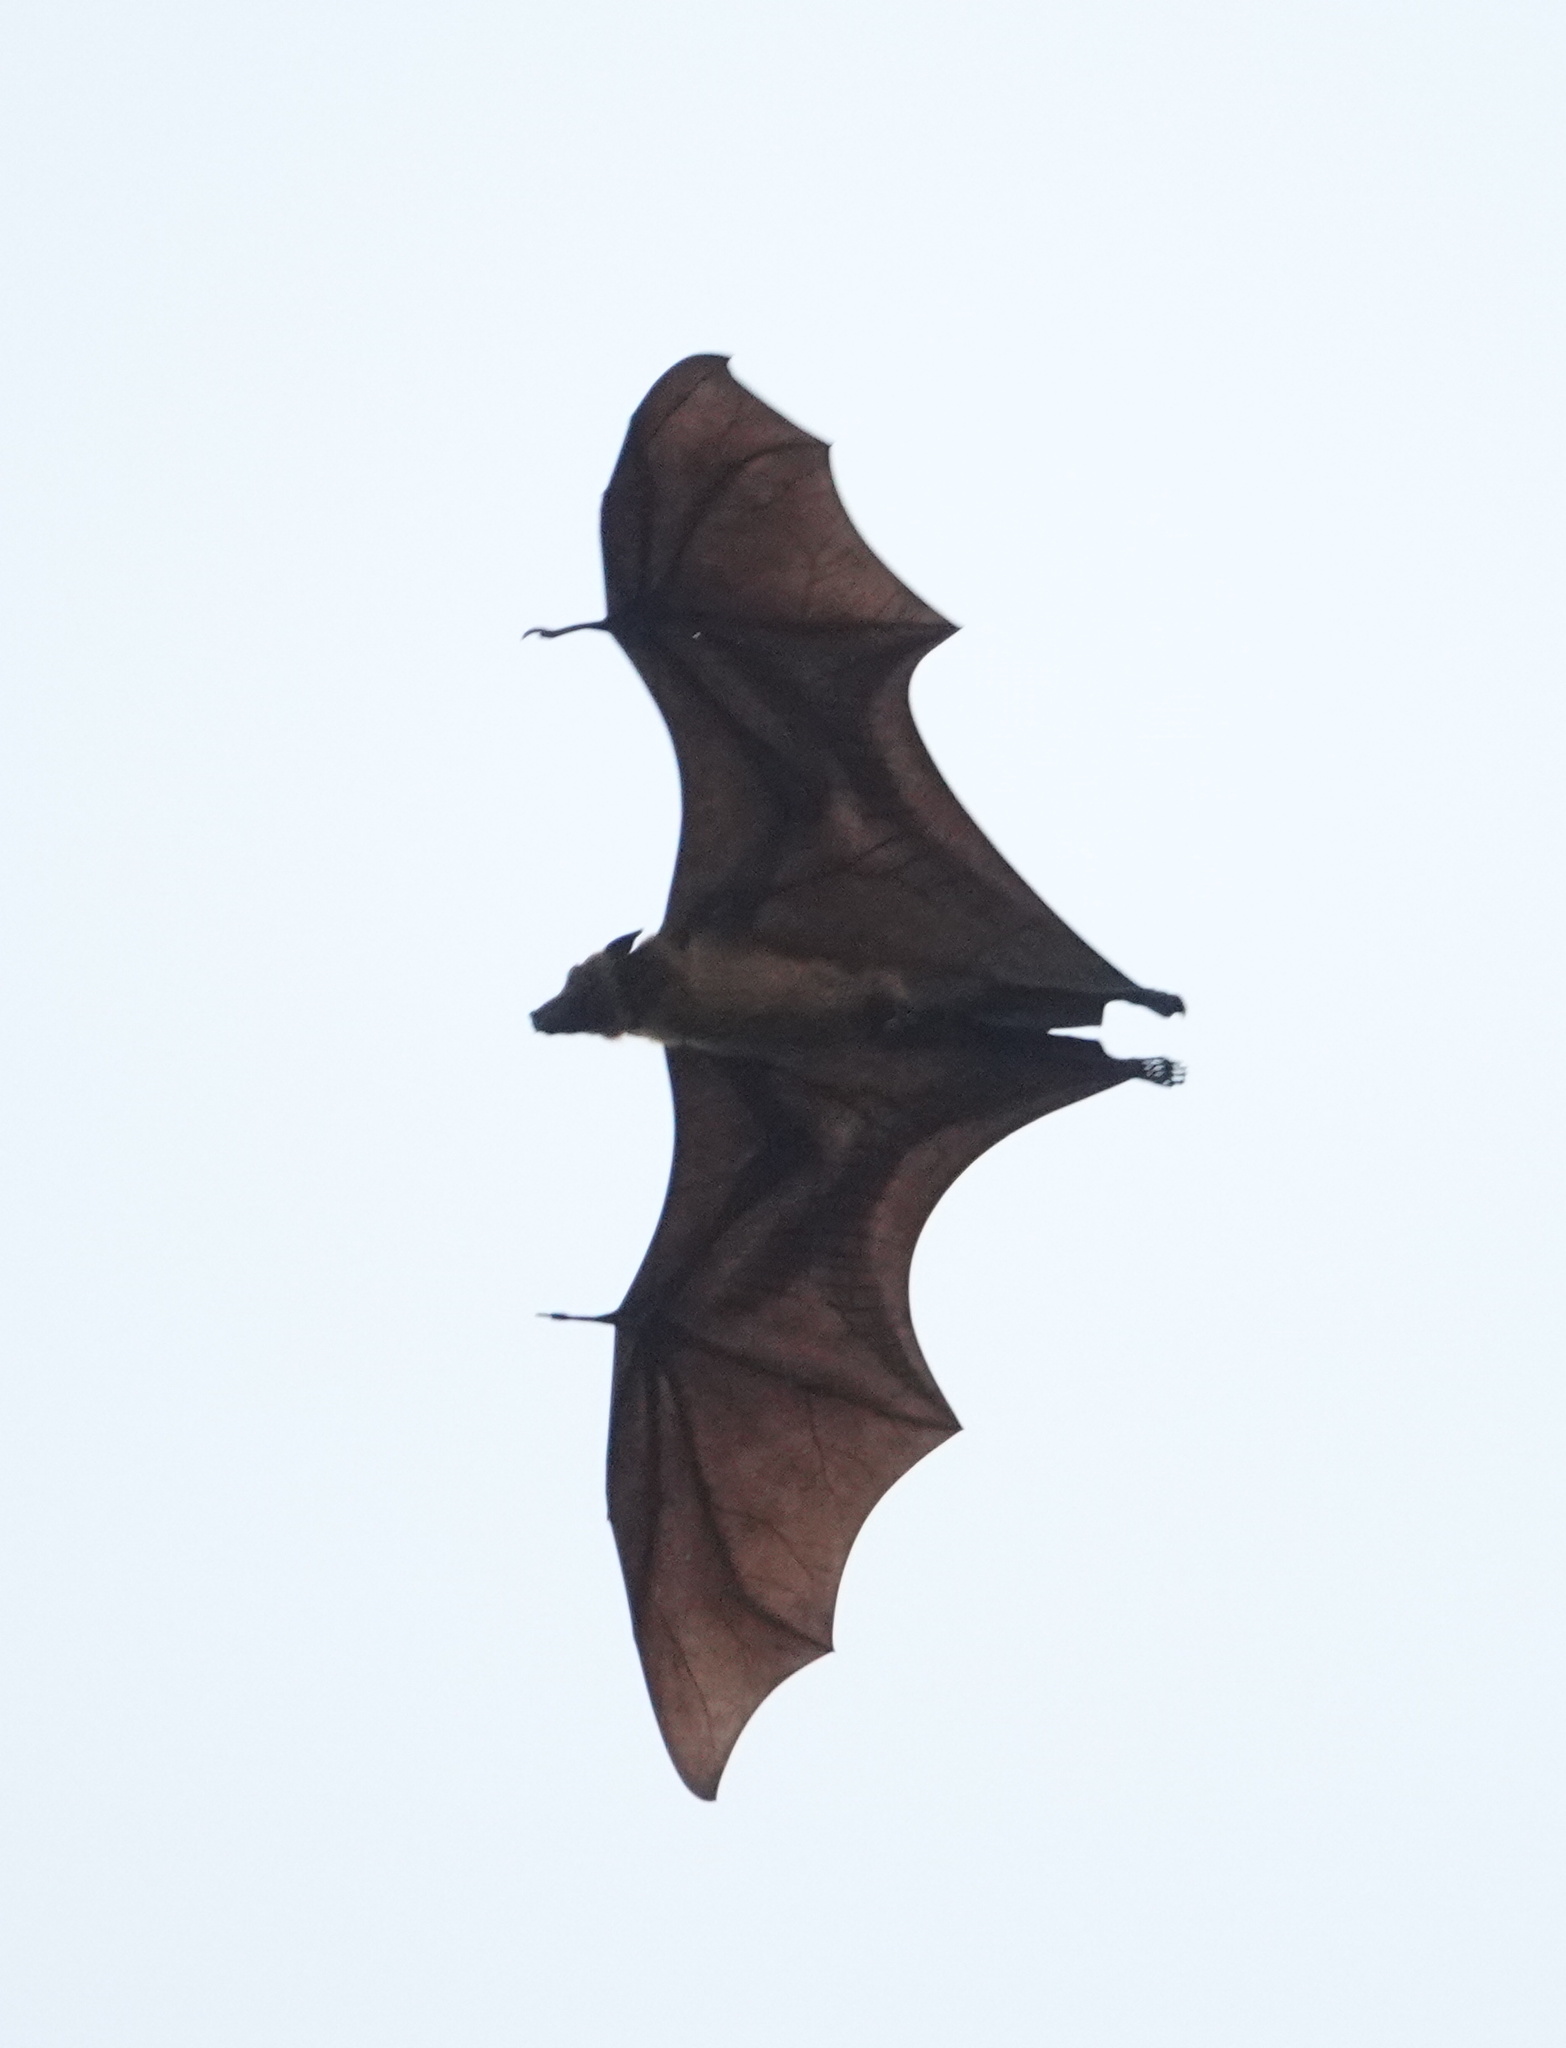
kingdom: Animalia
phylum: Chordata
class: Mammalia
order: Chiroptera
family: Pteropodidae
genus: Pteropus
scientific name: Pteropus vampyrus
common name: Large flying fox
